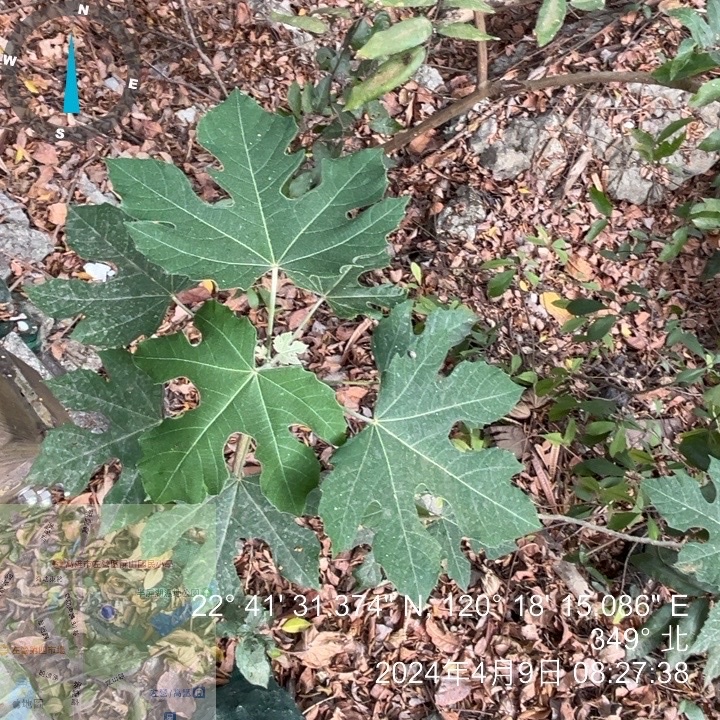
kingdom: Plantae
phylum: Tracheophyta
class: Magnoliopsida
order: Malpighiales
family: Euphorbiaceae
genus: Melanolepis
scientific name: Melanolepis multiglandulosa
